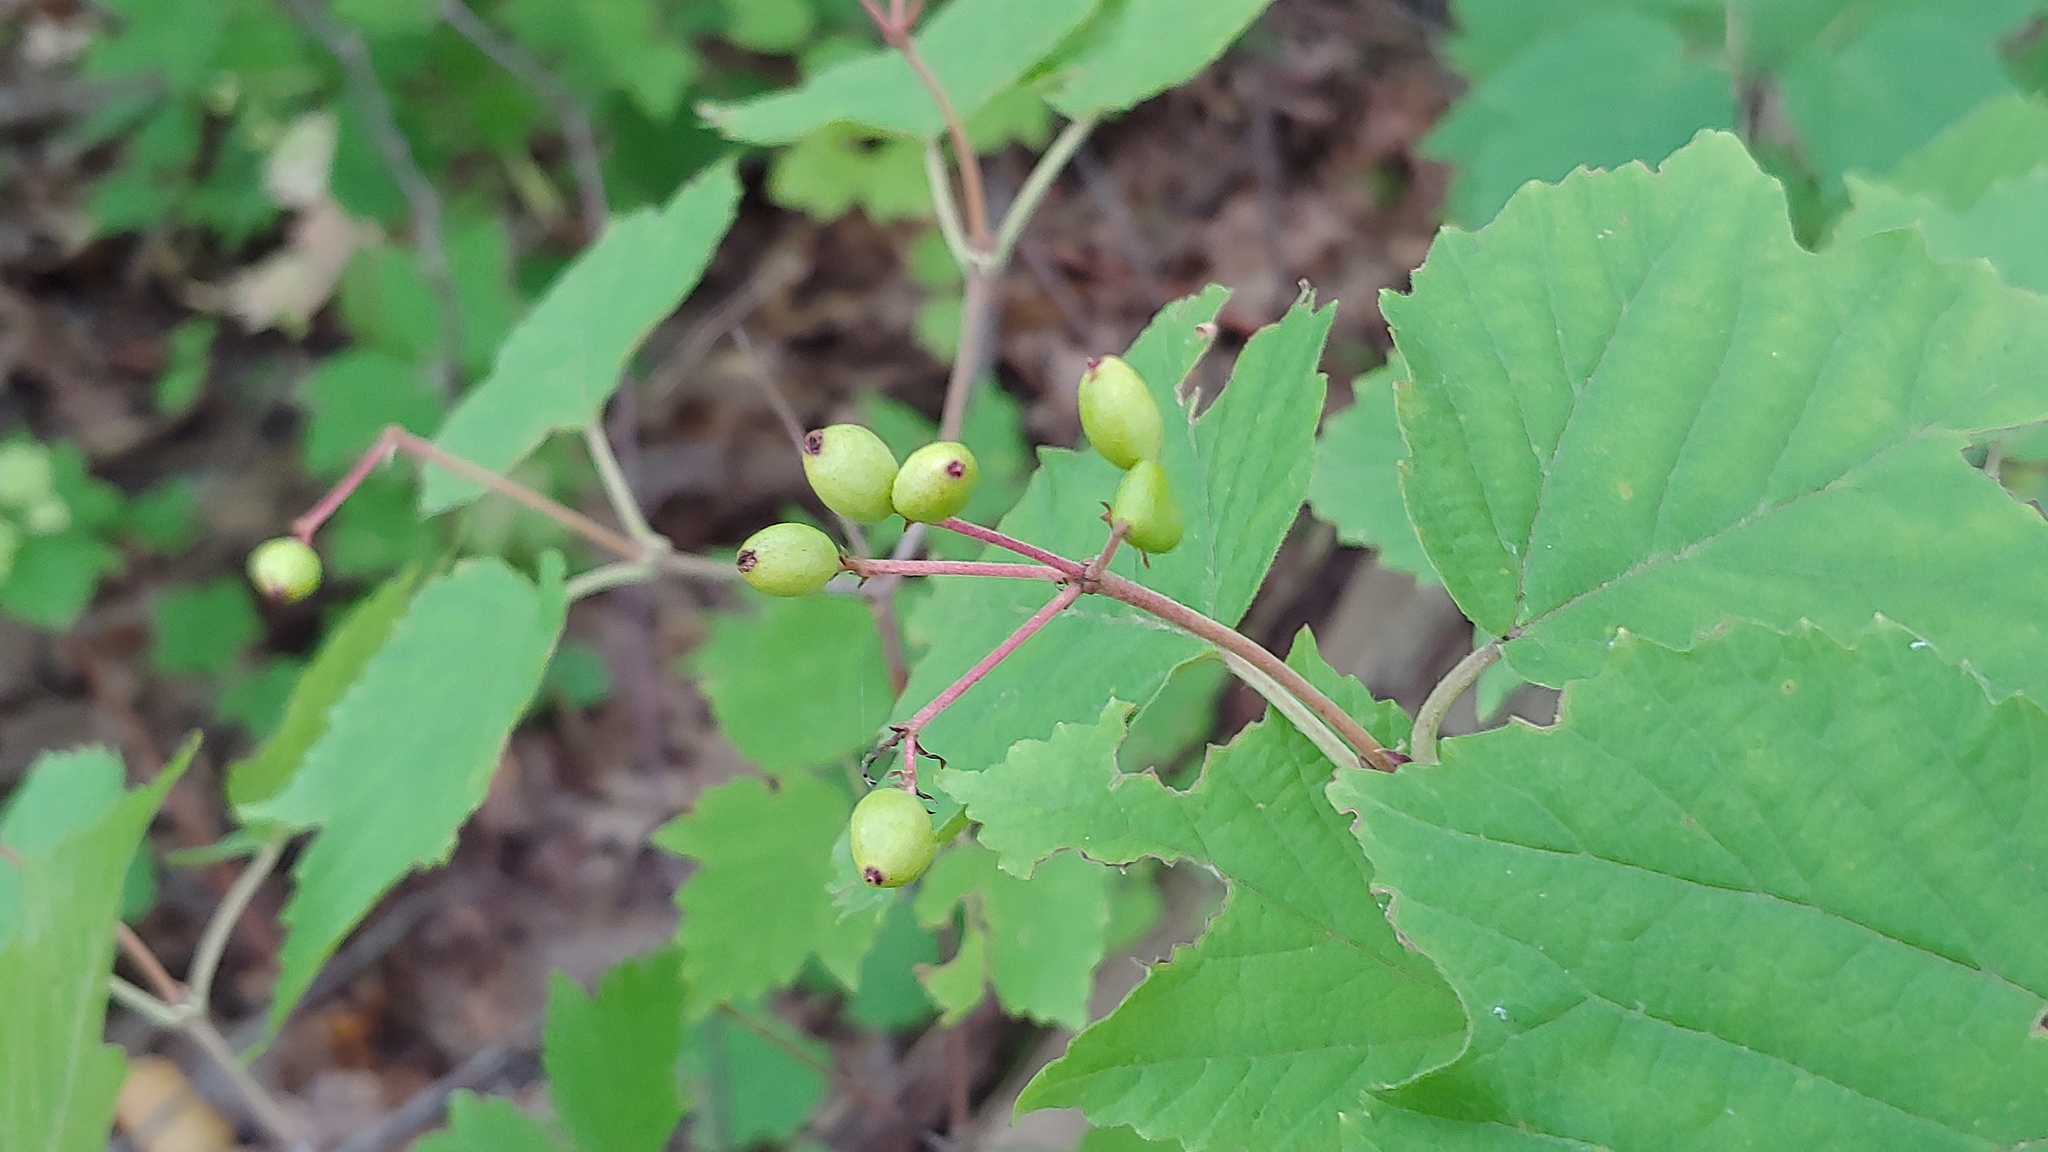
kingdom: Plantae
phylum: Tracheophyta
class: Magnoliopsida
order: Dipsacales
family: Viburnaceae
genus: Viburnum
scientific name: Viburnum acerifolium
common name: Dockmackie
